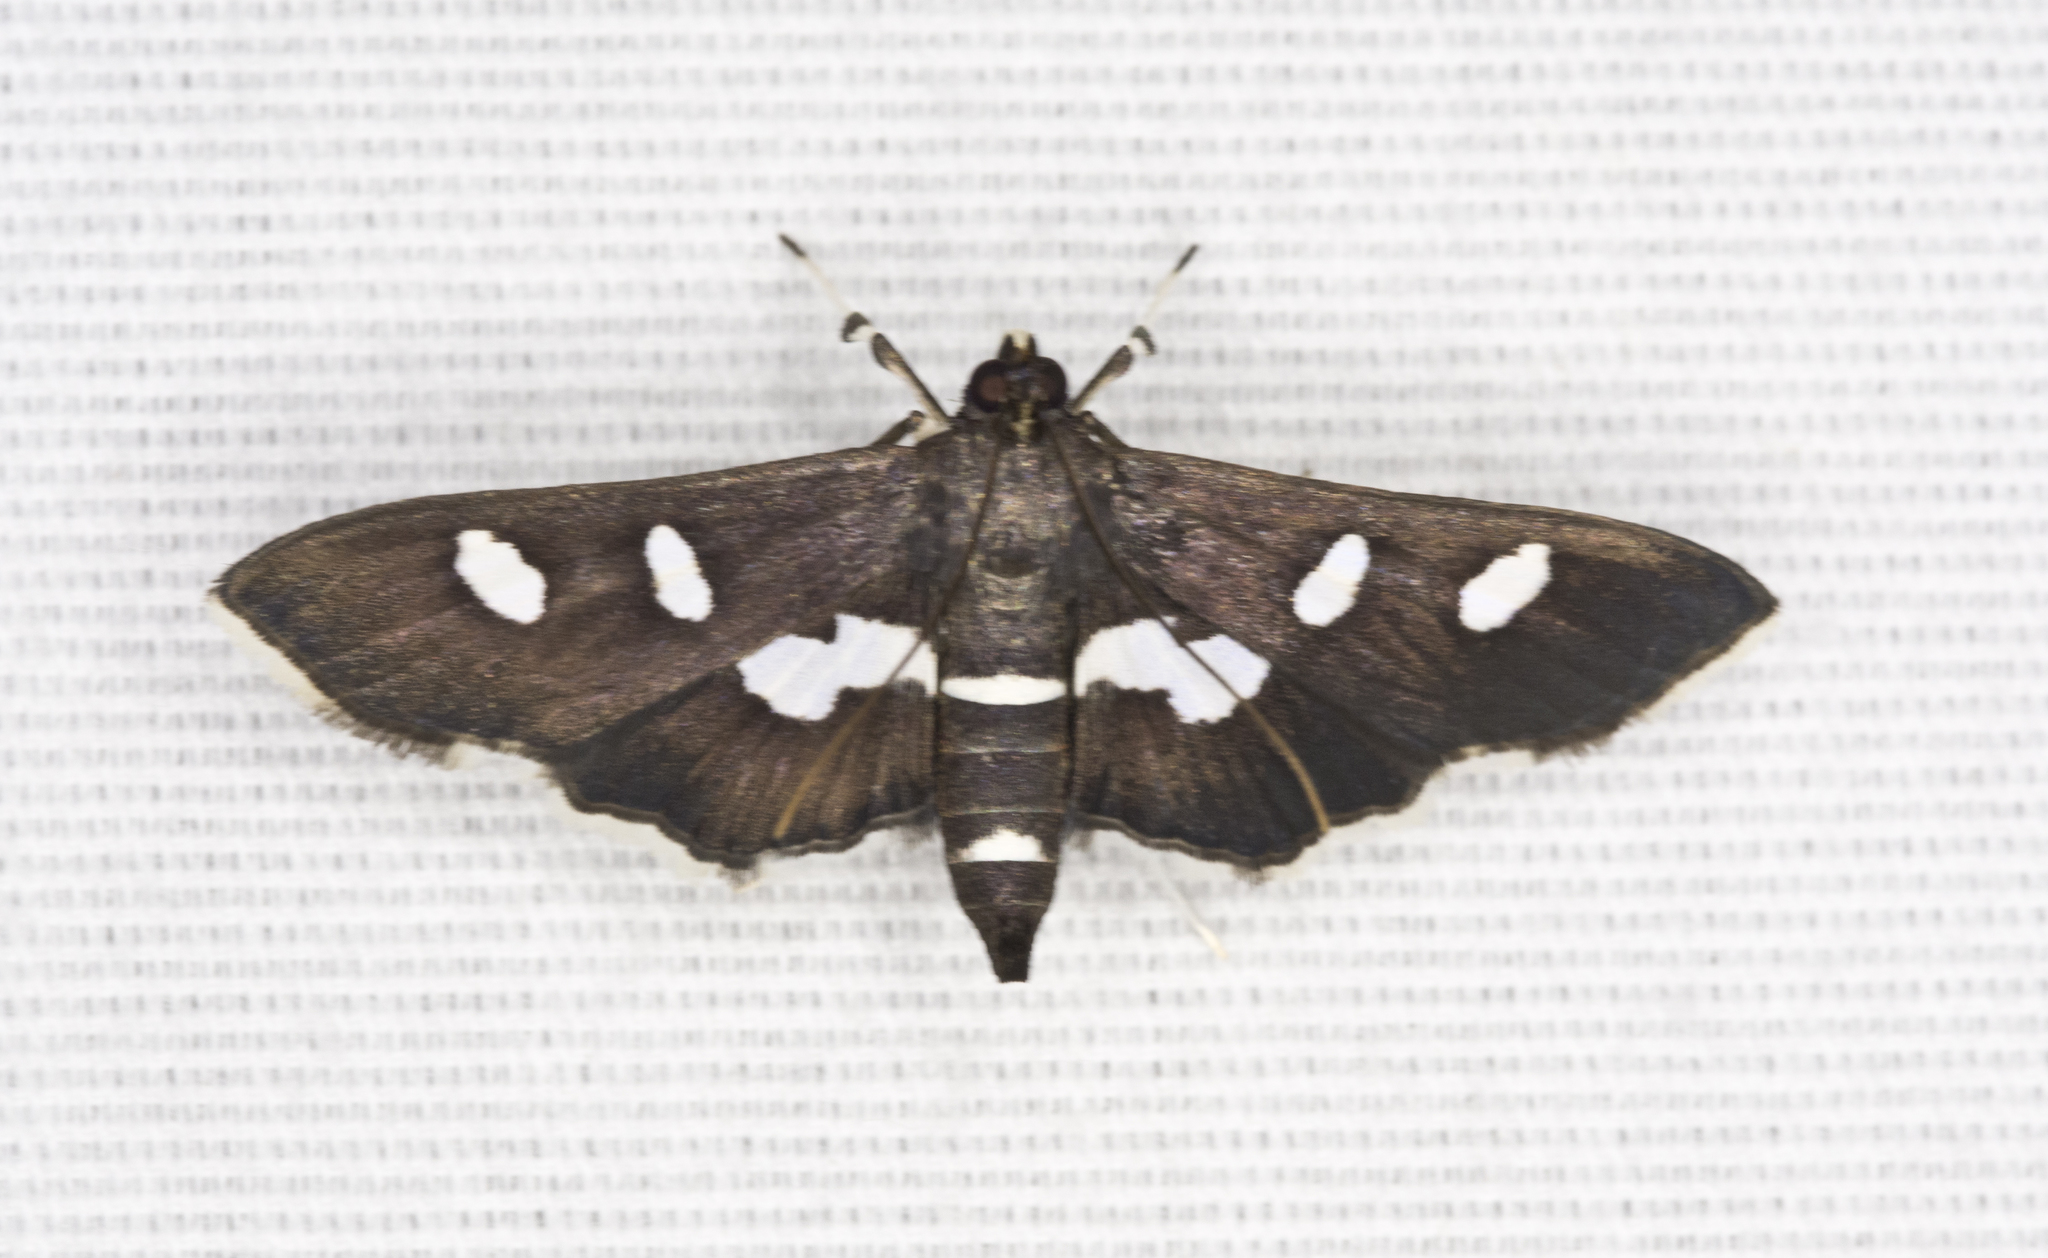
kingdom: Animalia
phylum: Arthropoda
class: Insecta
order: Lepidoptera
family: Crambidae
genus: Desmia
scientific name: Desmia
